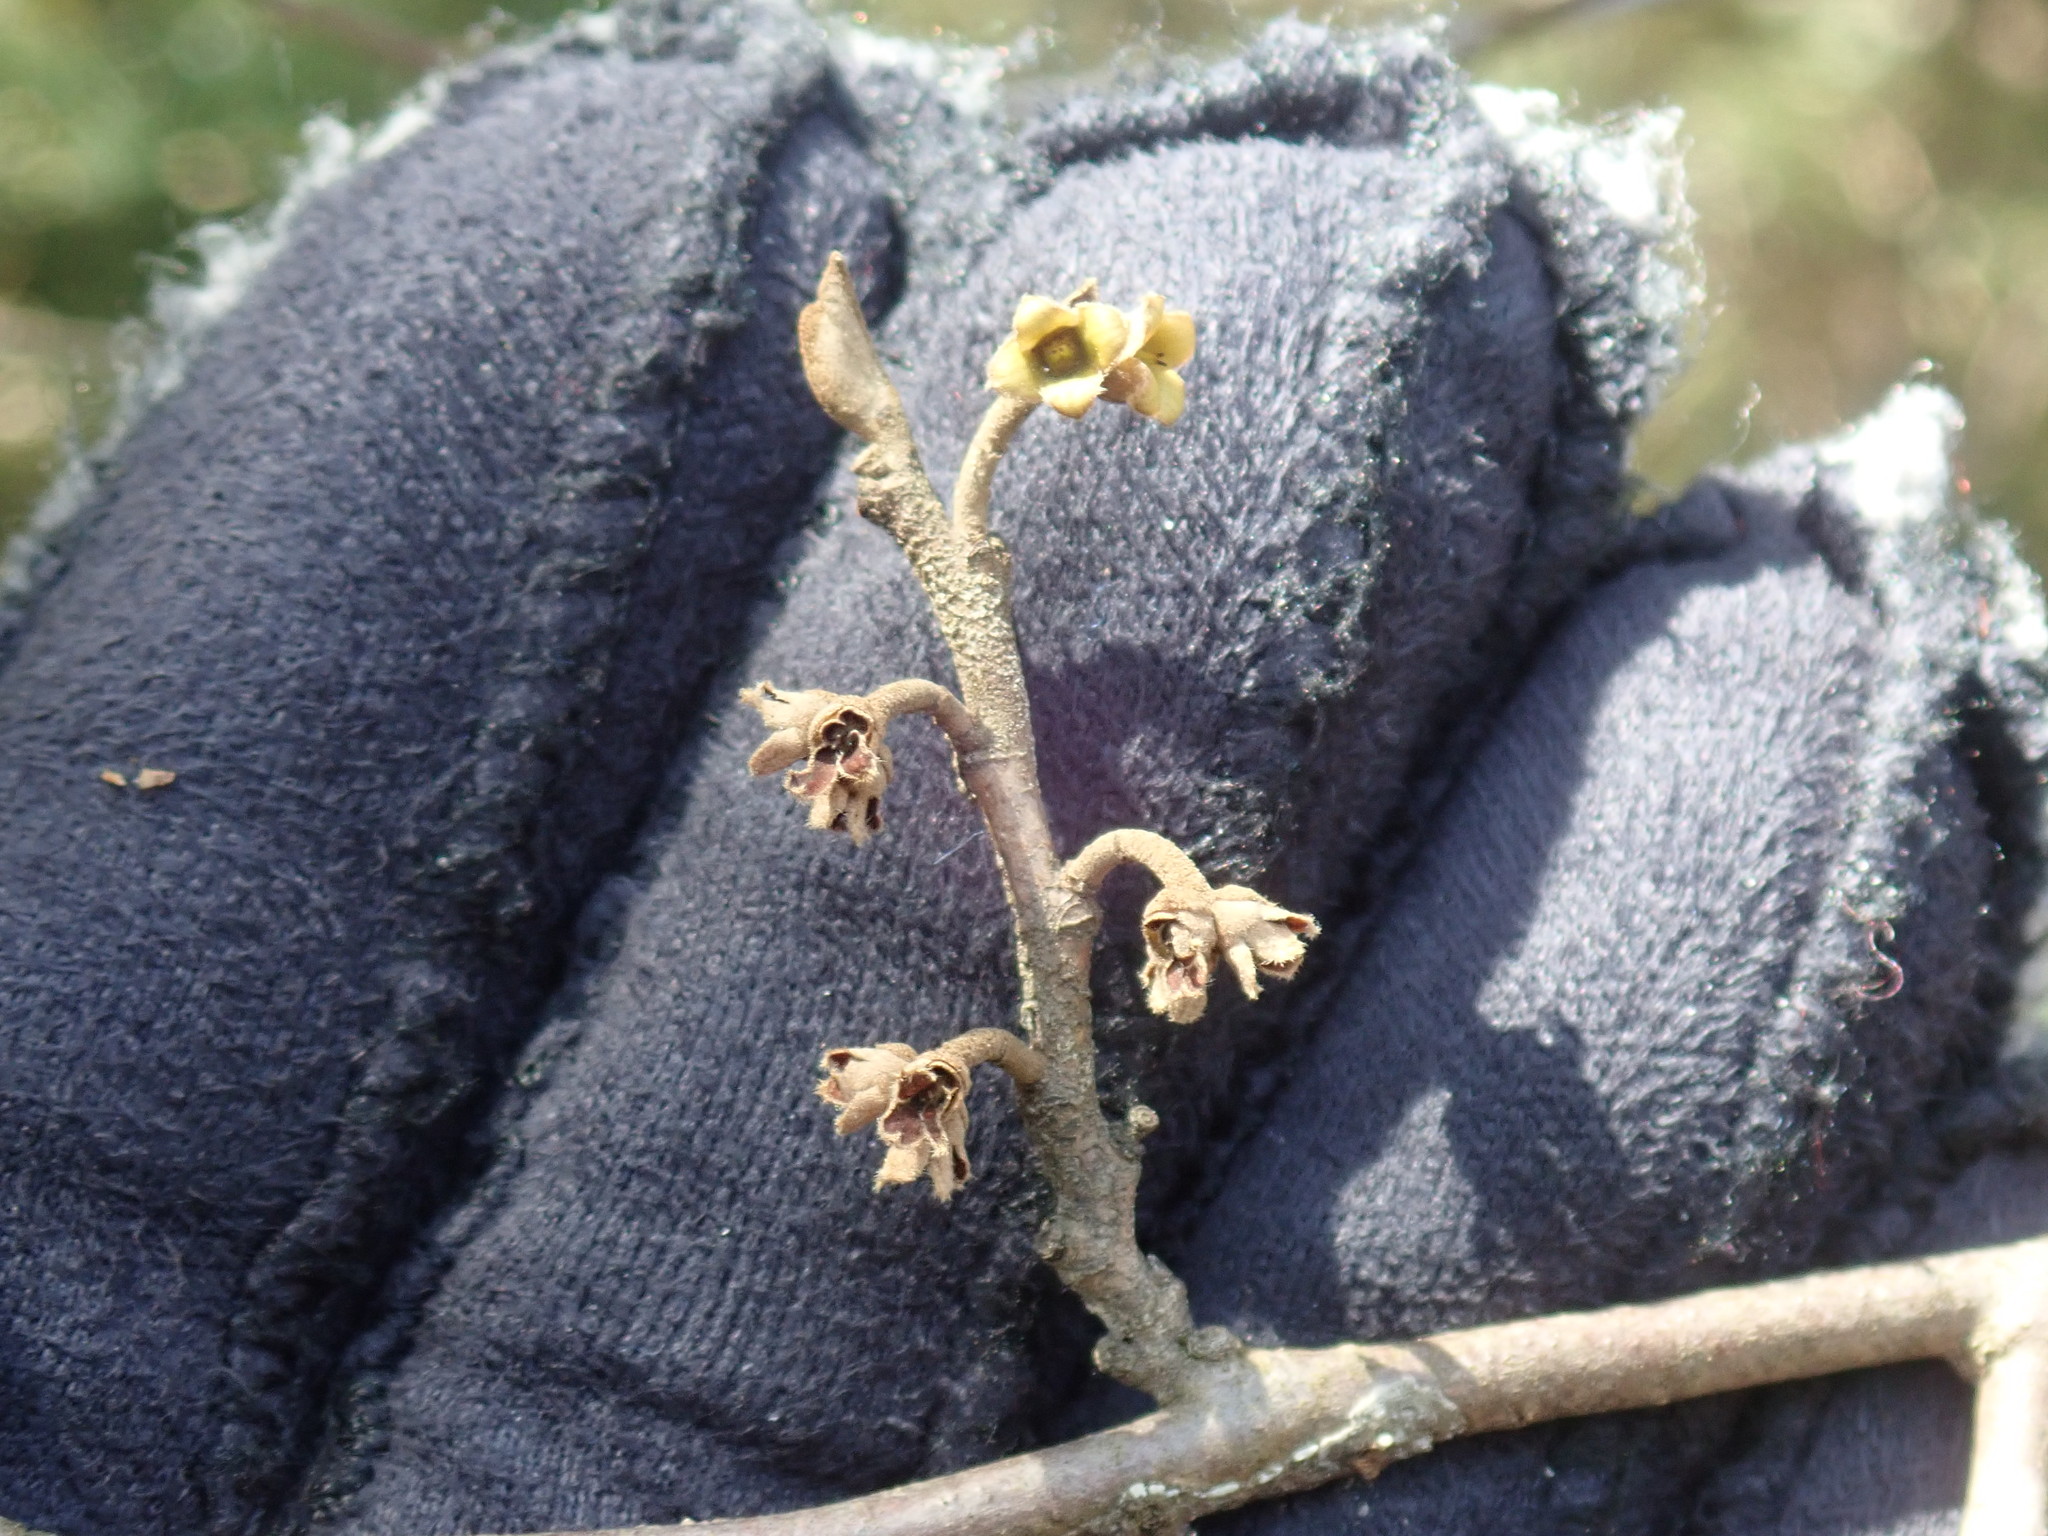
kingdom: Plantae
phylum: Tracheophyta
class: Magnoliopsida
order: Saxifragales
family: Hamamelidaceae
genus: Hamamelis
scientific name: Hamamelis virginiana
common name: Witch-hazel
